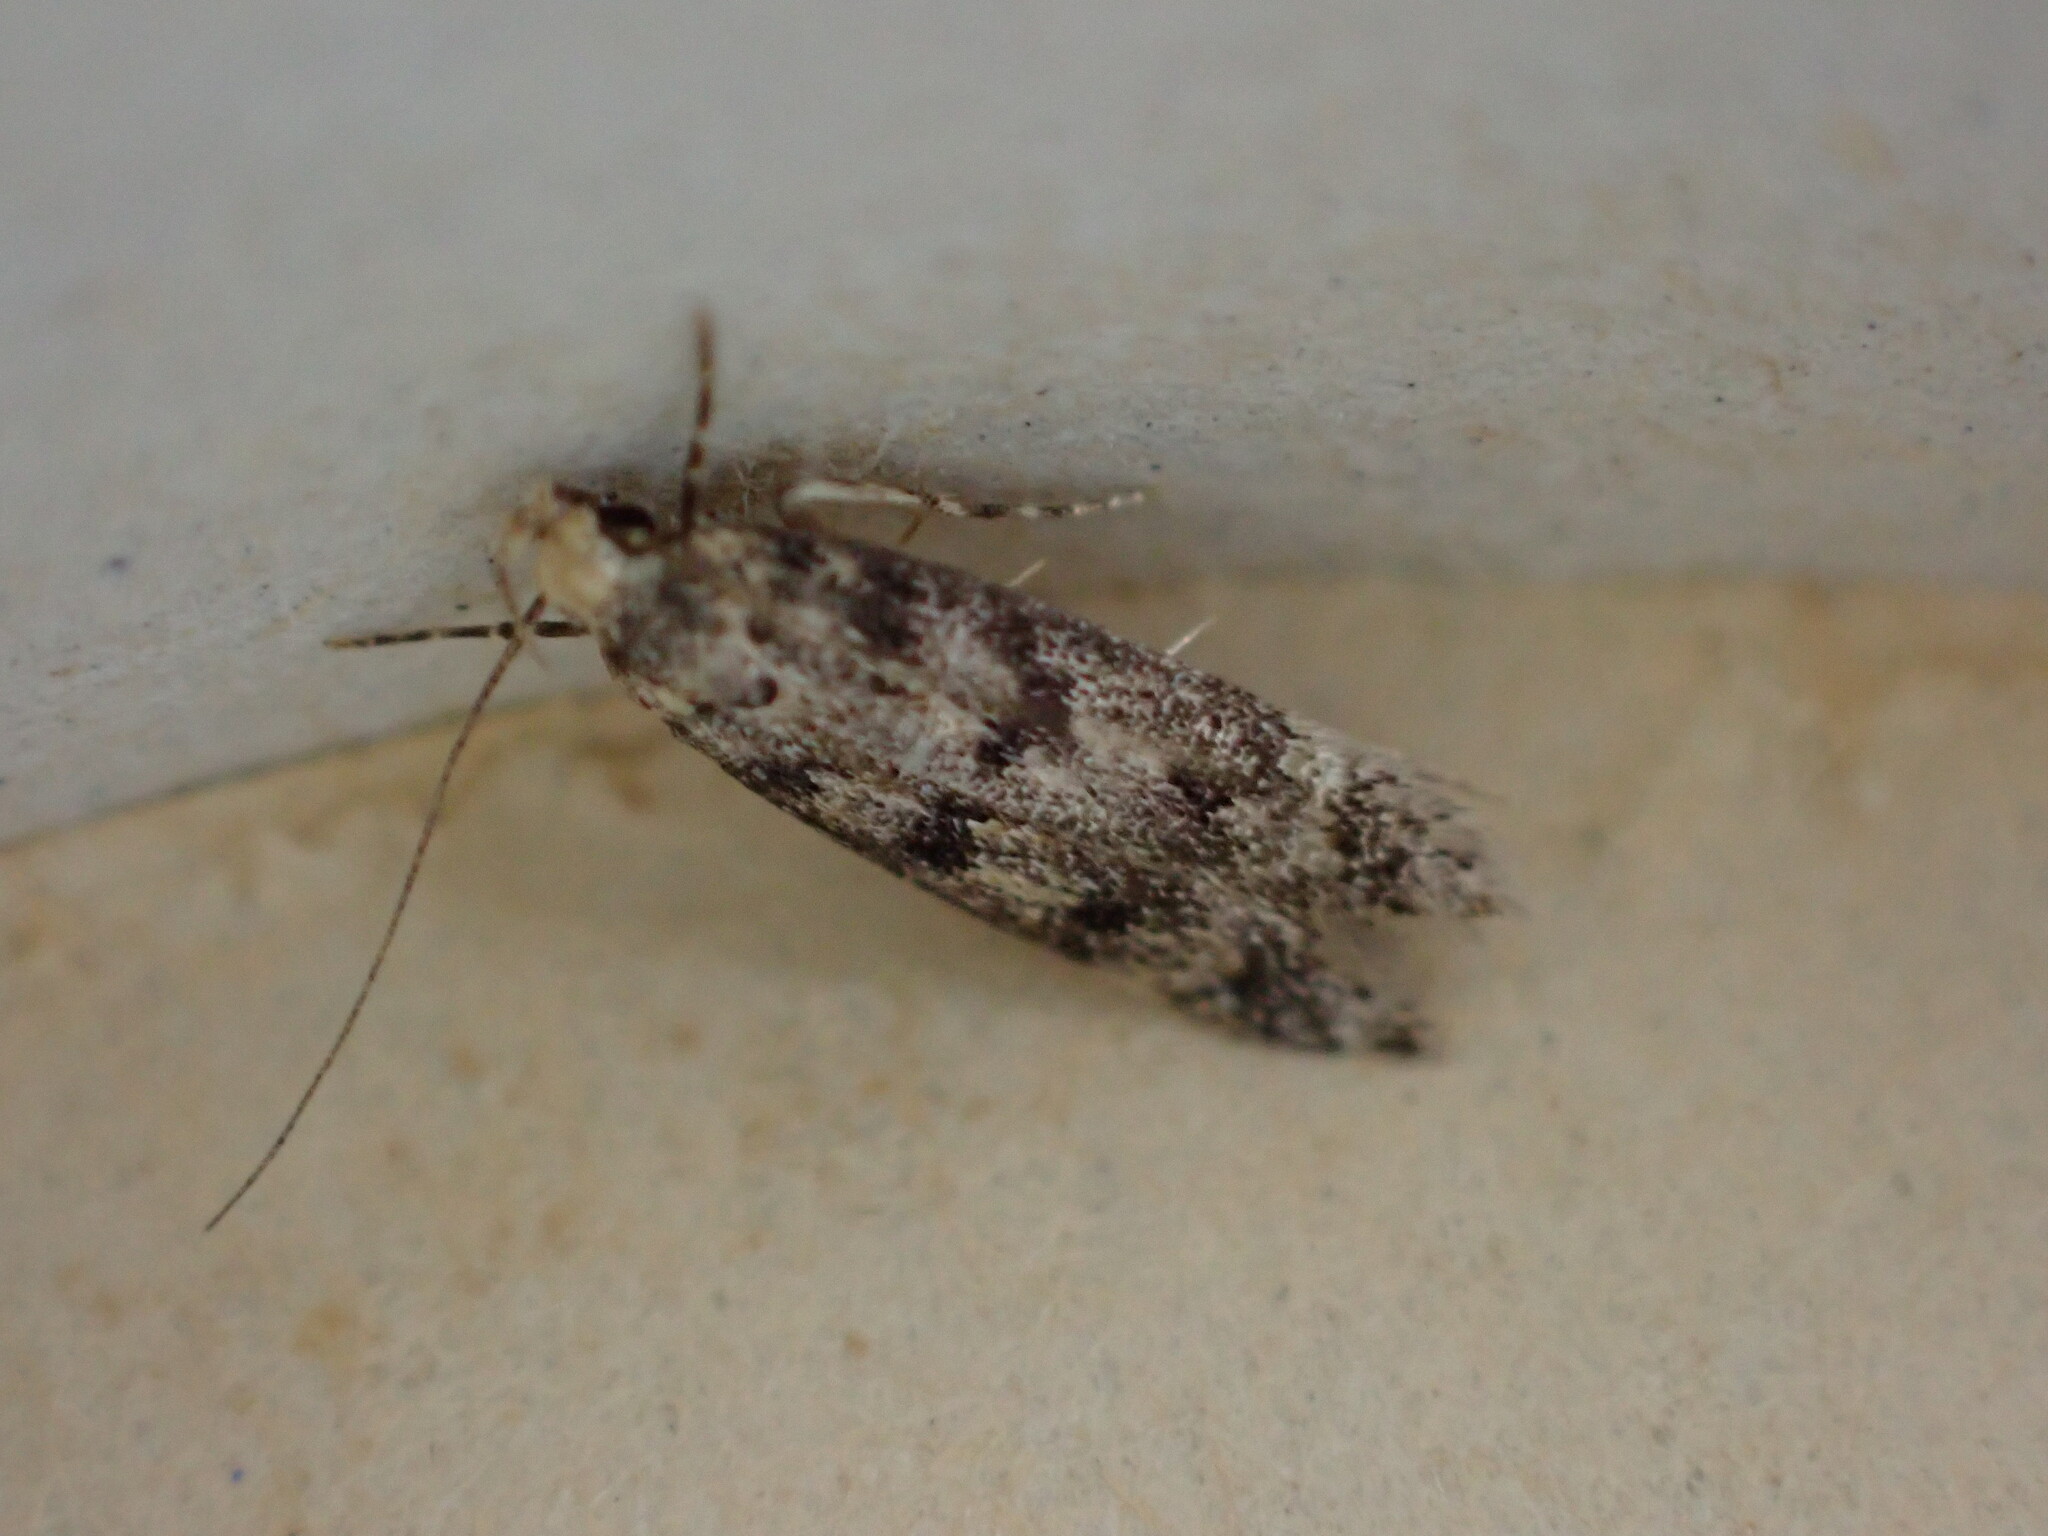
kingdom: Animalia
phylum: Arthropoda
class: Insecta
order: Lepidoptera
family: Gelechiidae
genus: Bryotropha
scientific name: Bryotropha domestica
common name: House groundling
